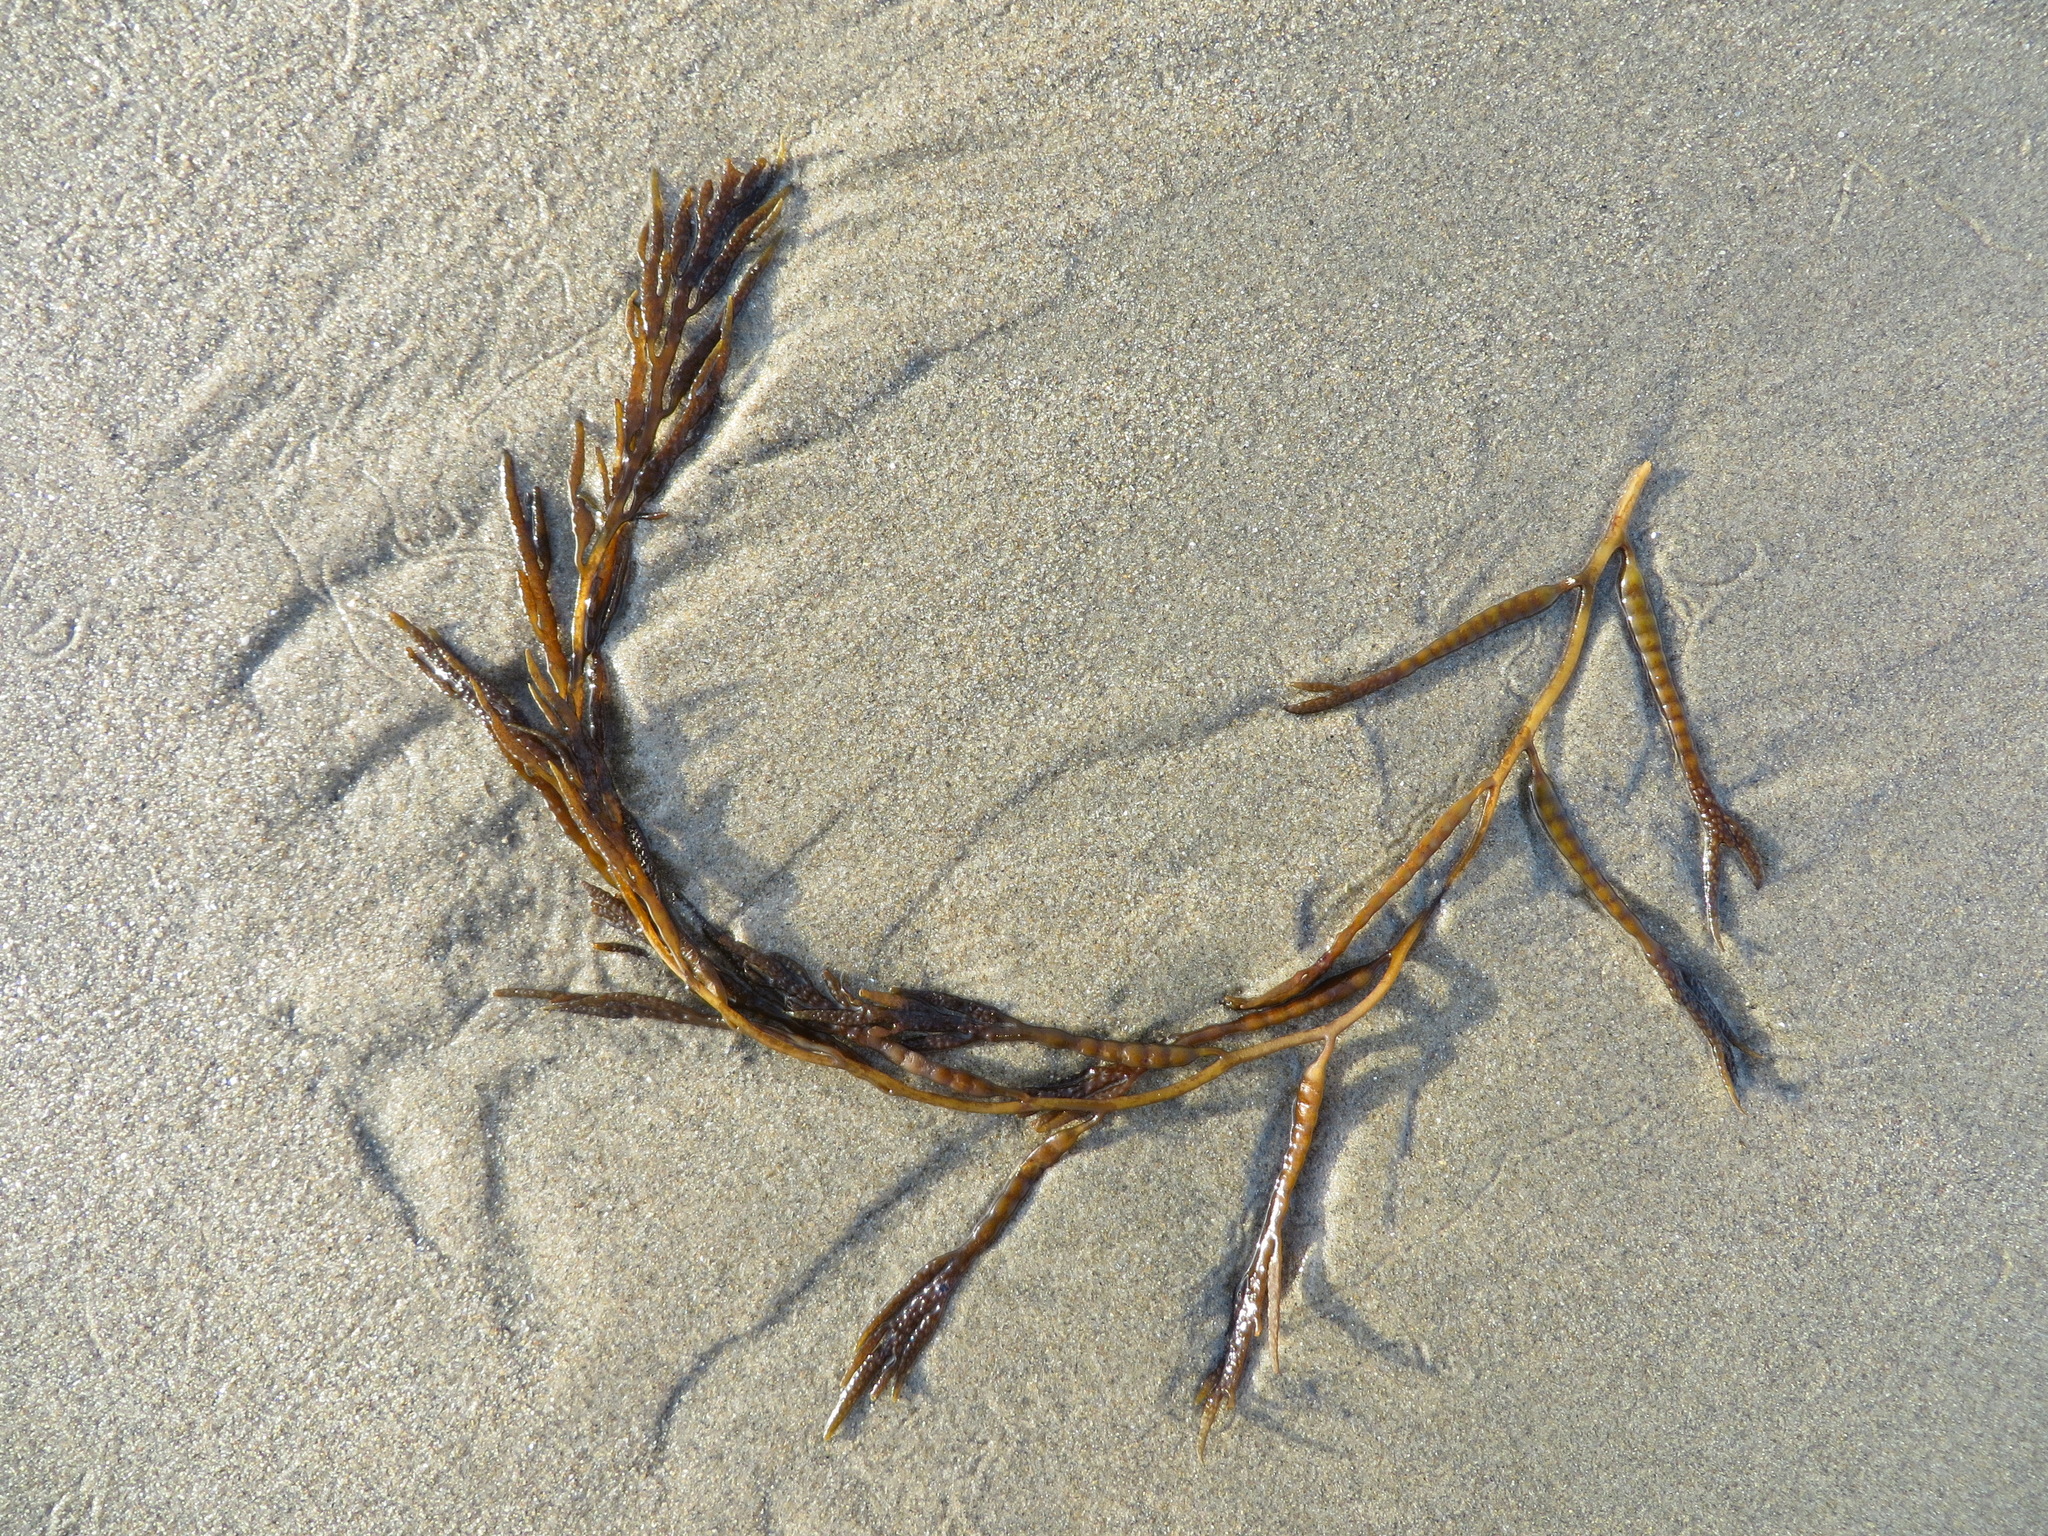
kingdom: Chromista
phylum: Ochrophyta
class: Phaeophyceae
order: Fucales
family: Sargassaceae
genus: Stephanocystis
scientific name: Stephanocystis
